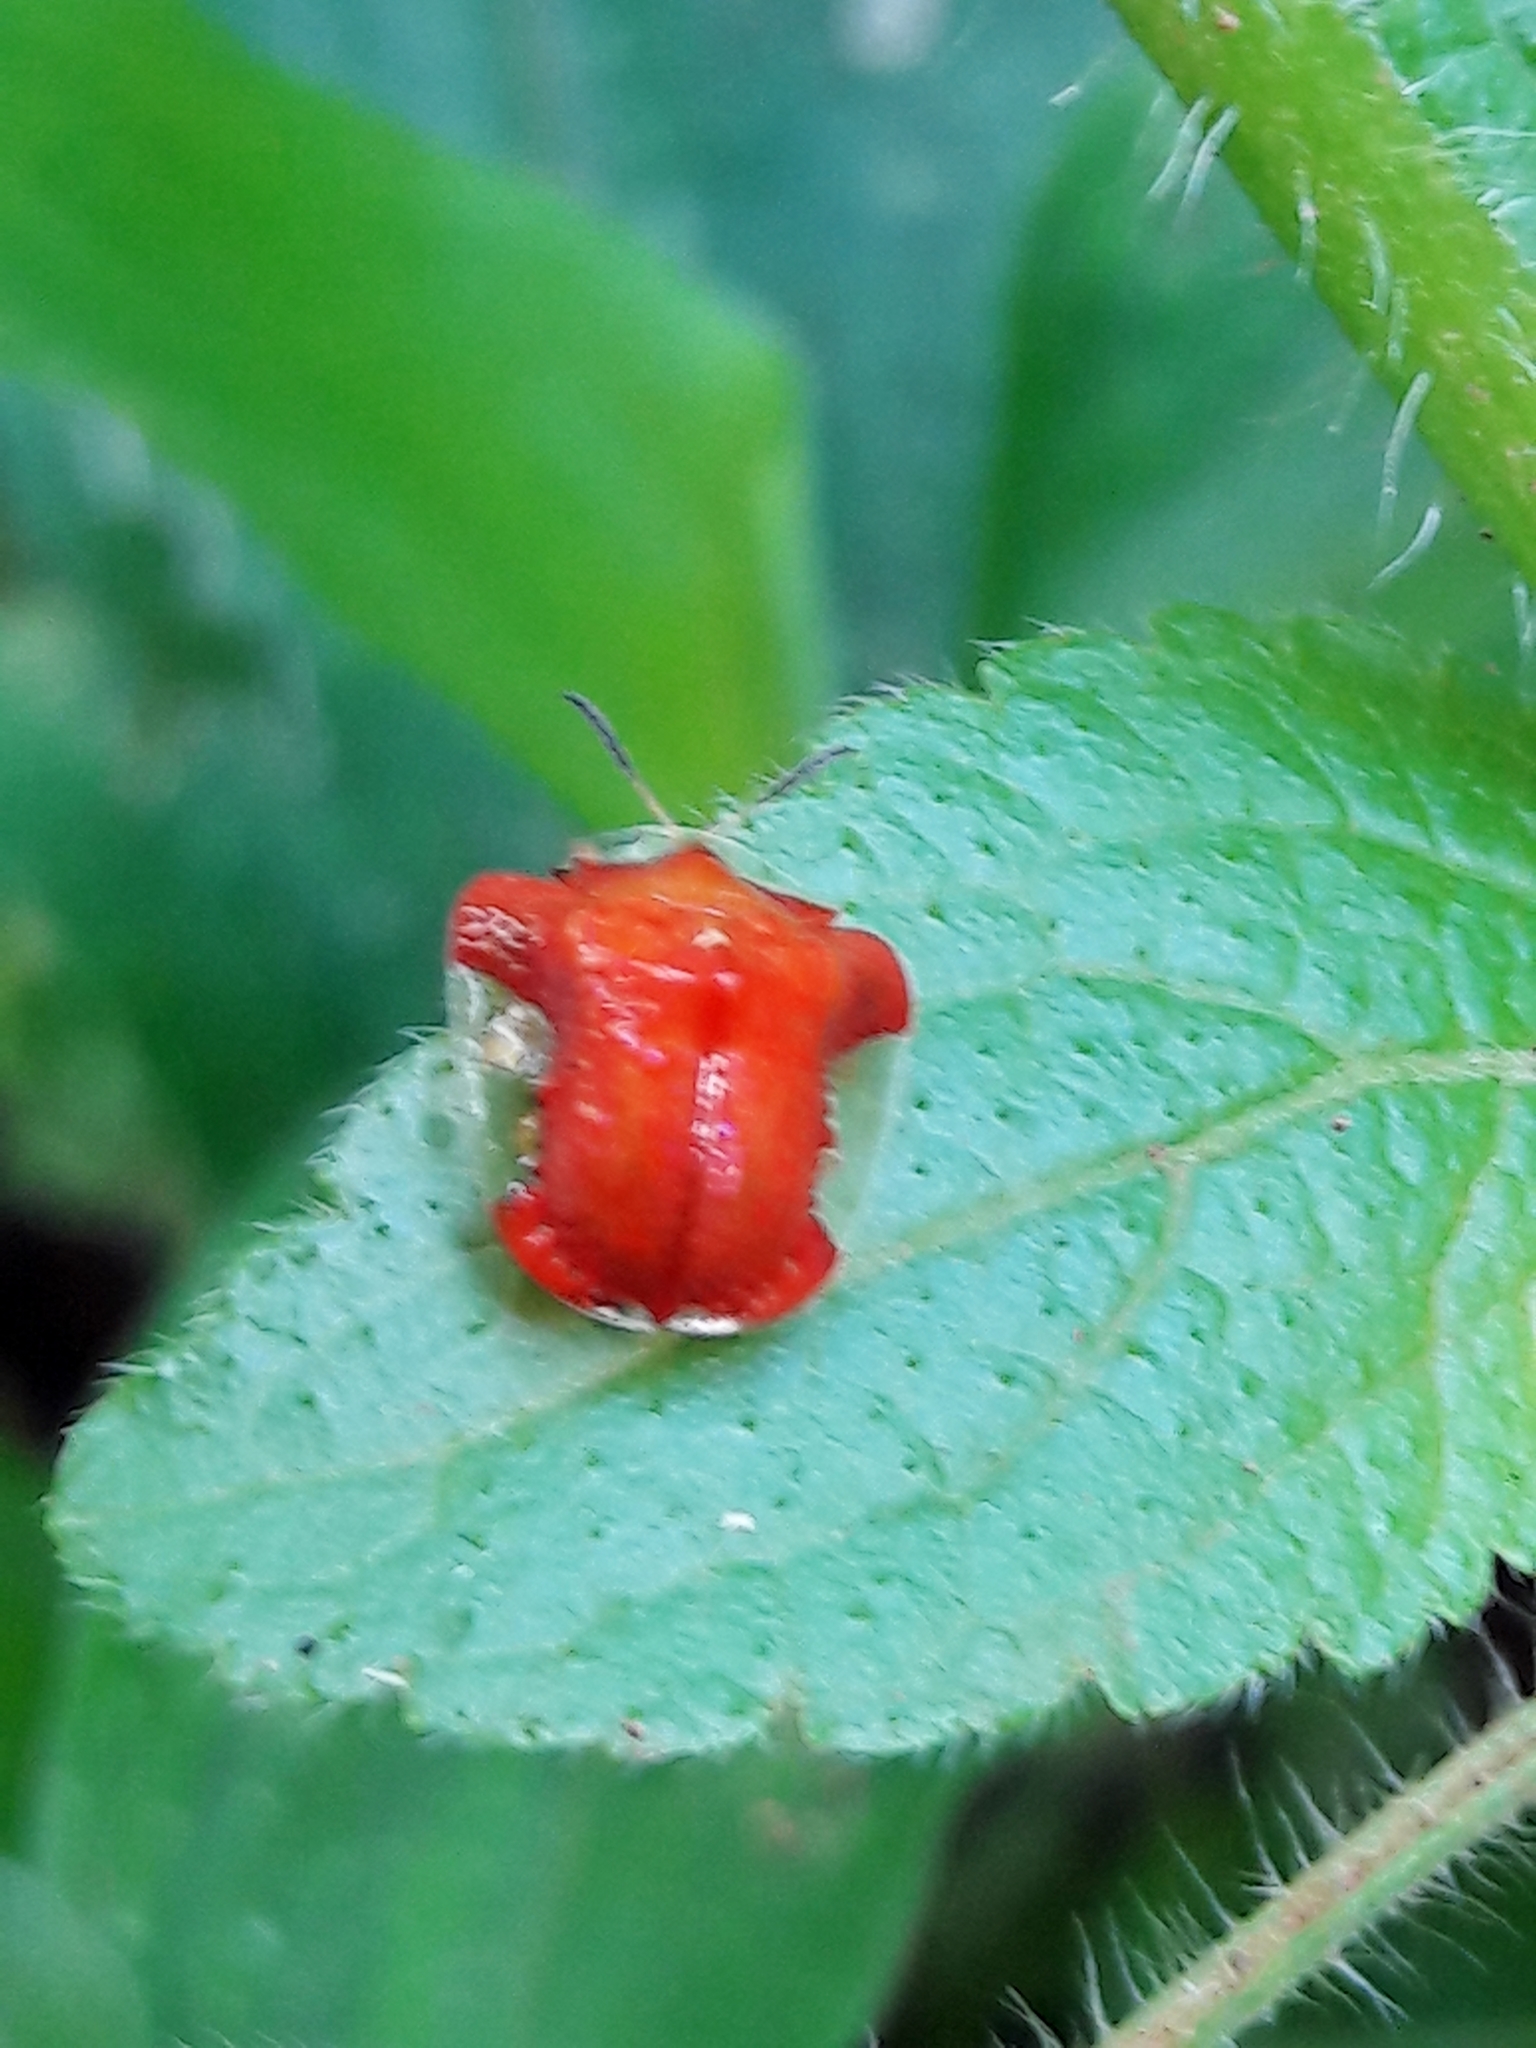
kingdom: Animalia
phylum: Arthropoda
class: Insecta
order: Coleoptera
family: Chrysomelidae
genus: Charidotella
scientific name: Charidotella rubicunda
